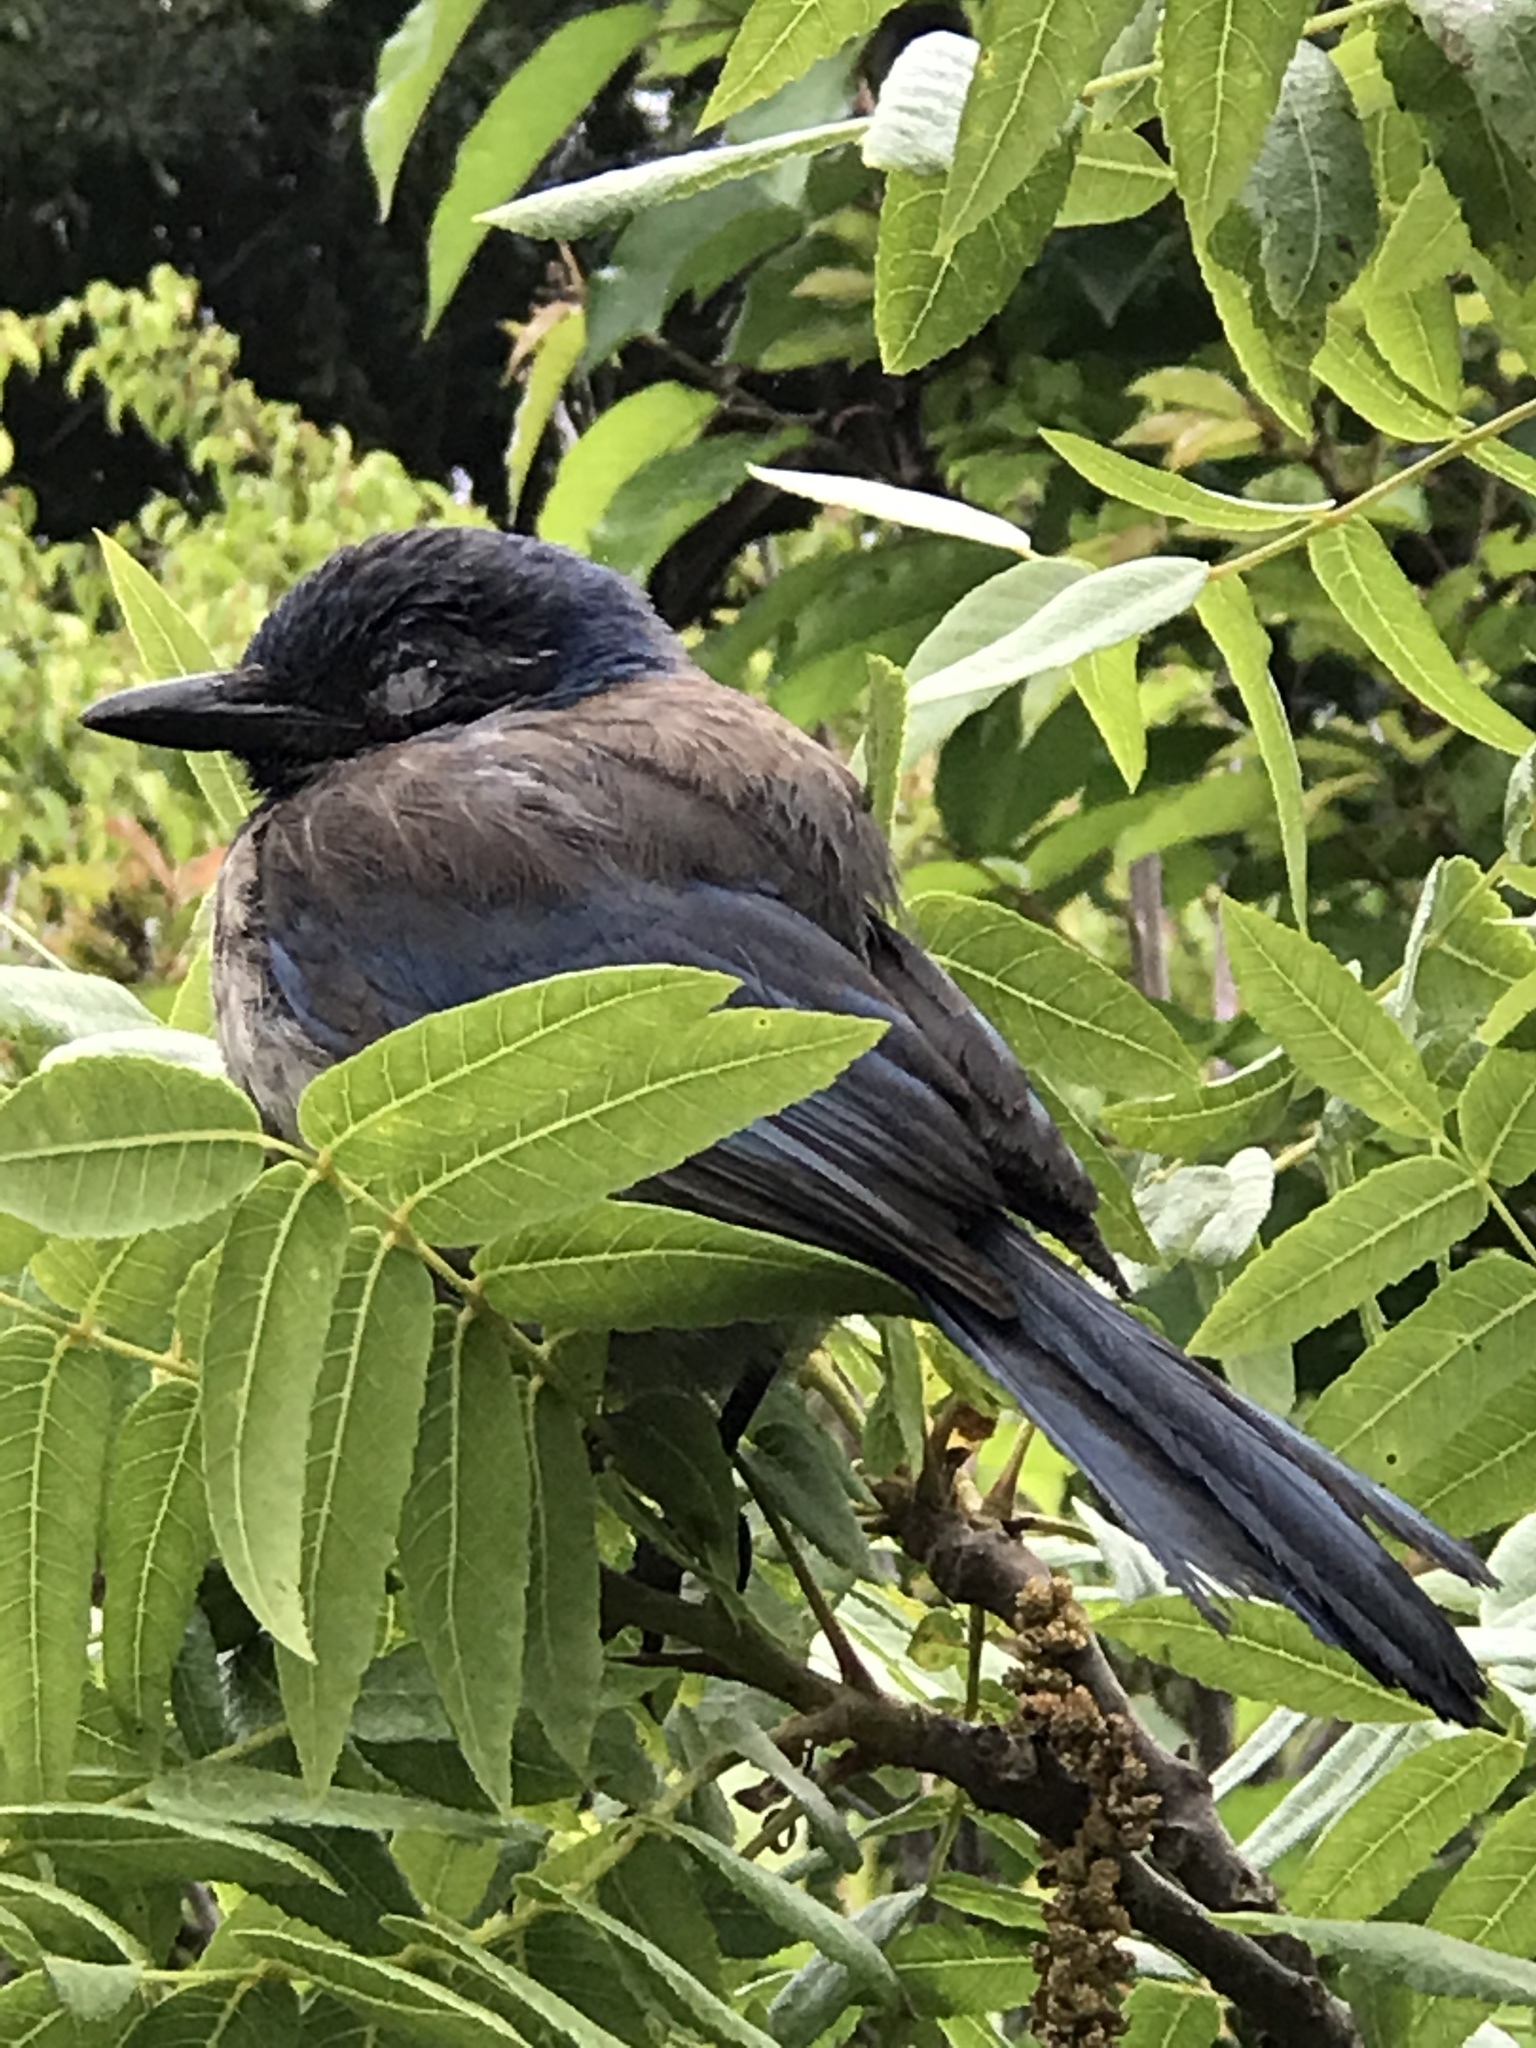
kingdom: Animalia
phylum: Chordata
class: Aves
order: Passeriformes
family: Corvidae
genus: Aphelocoma
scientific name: Aphelocoma californica
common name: California scrub-jay
